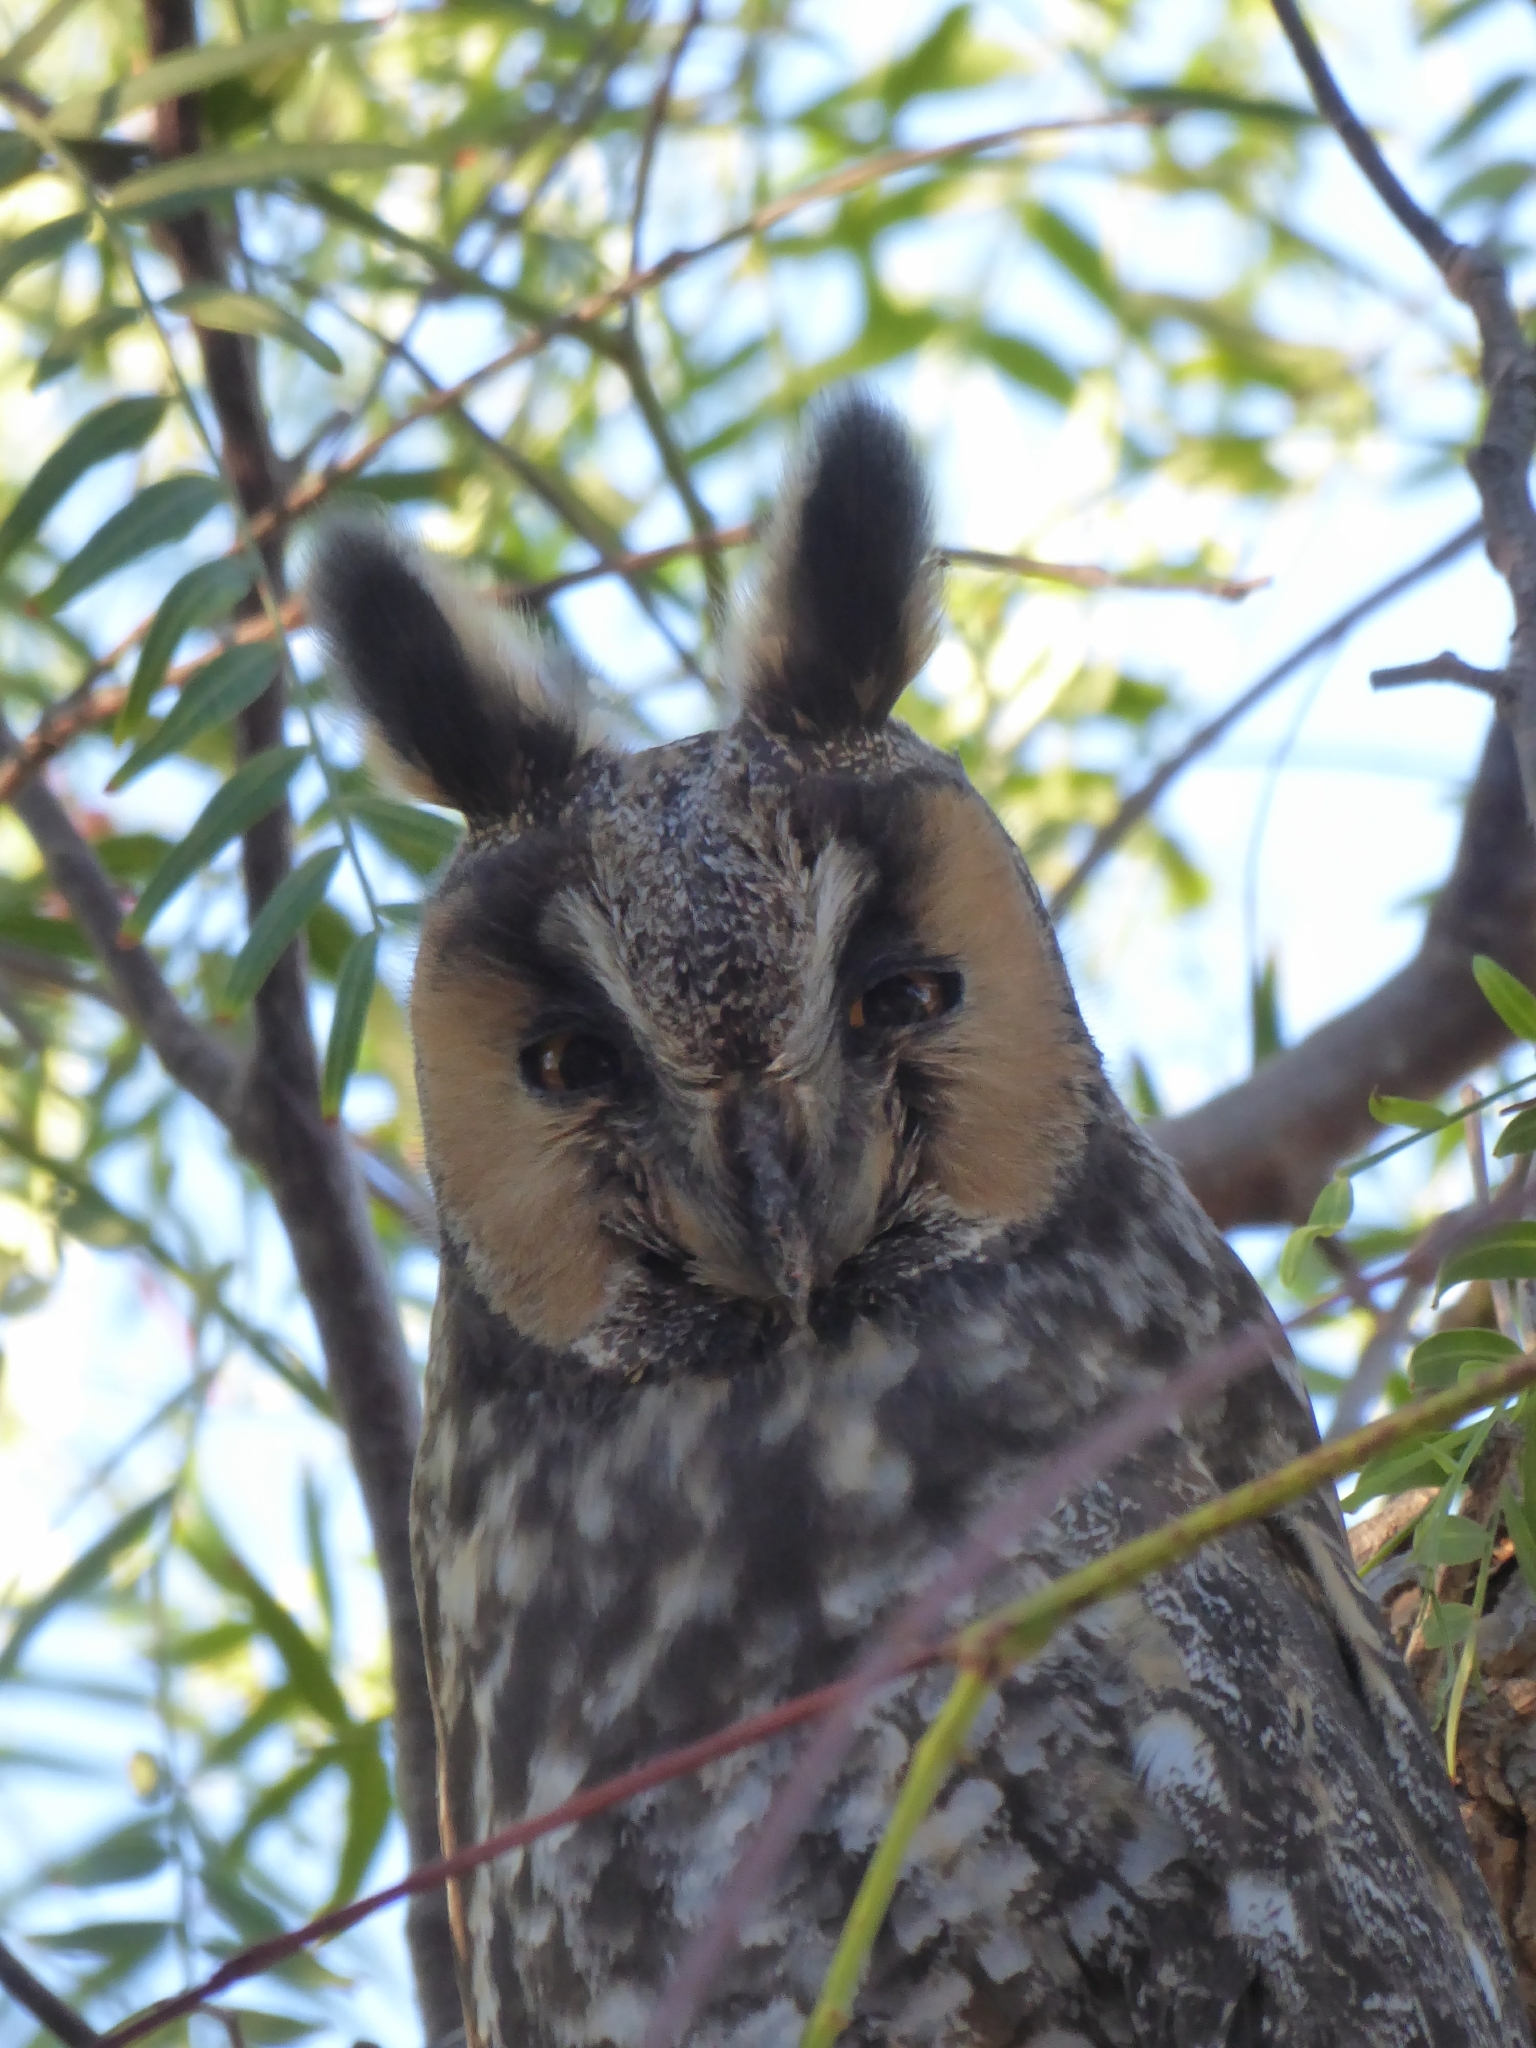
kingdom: Animalia
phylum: Chordata
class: Aves
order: Strigiformes
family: Strigidae
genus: Asio
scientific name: Asio otus
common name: Long-eared owl
